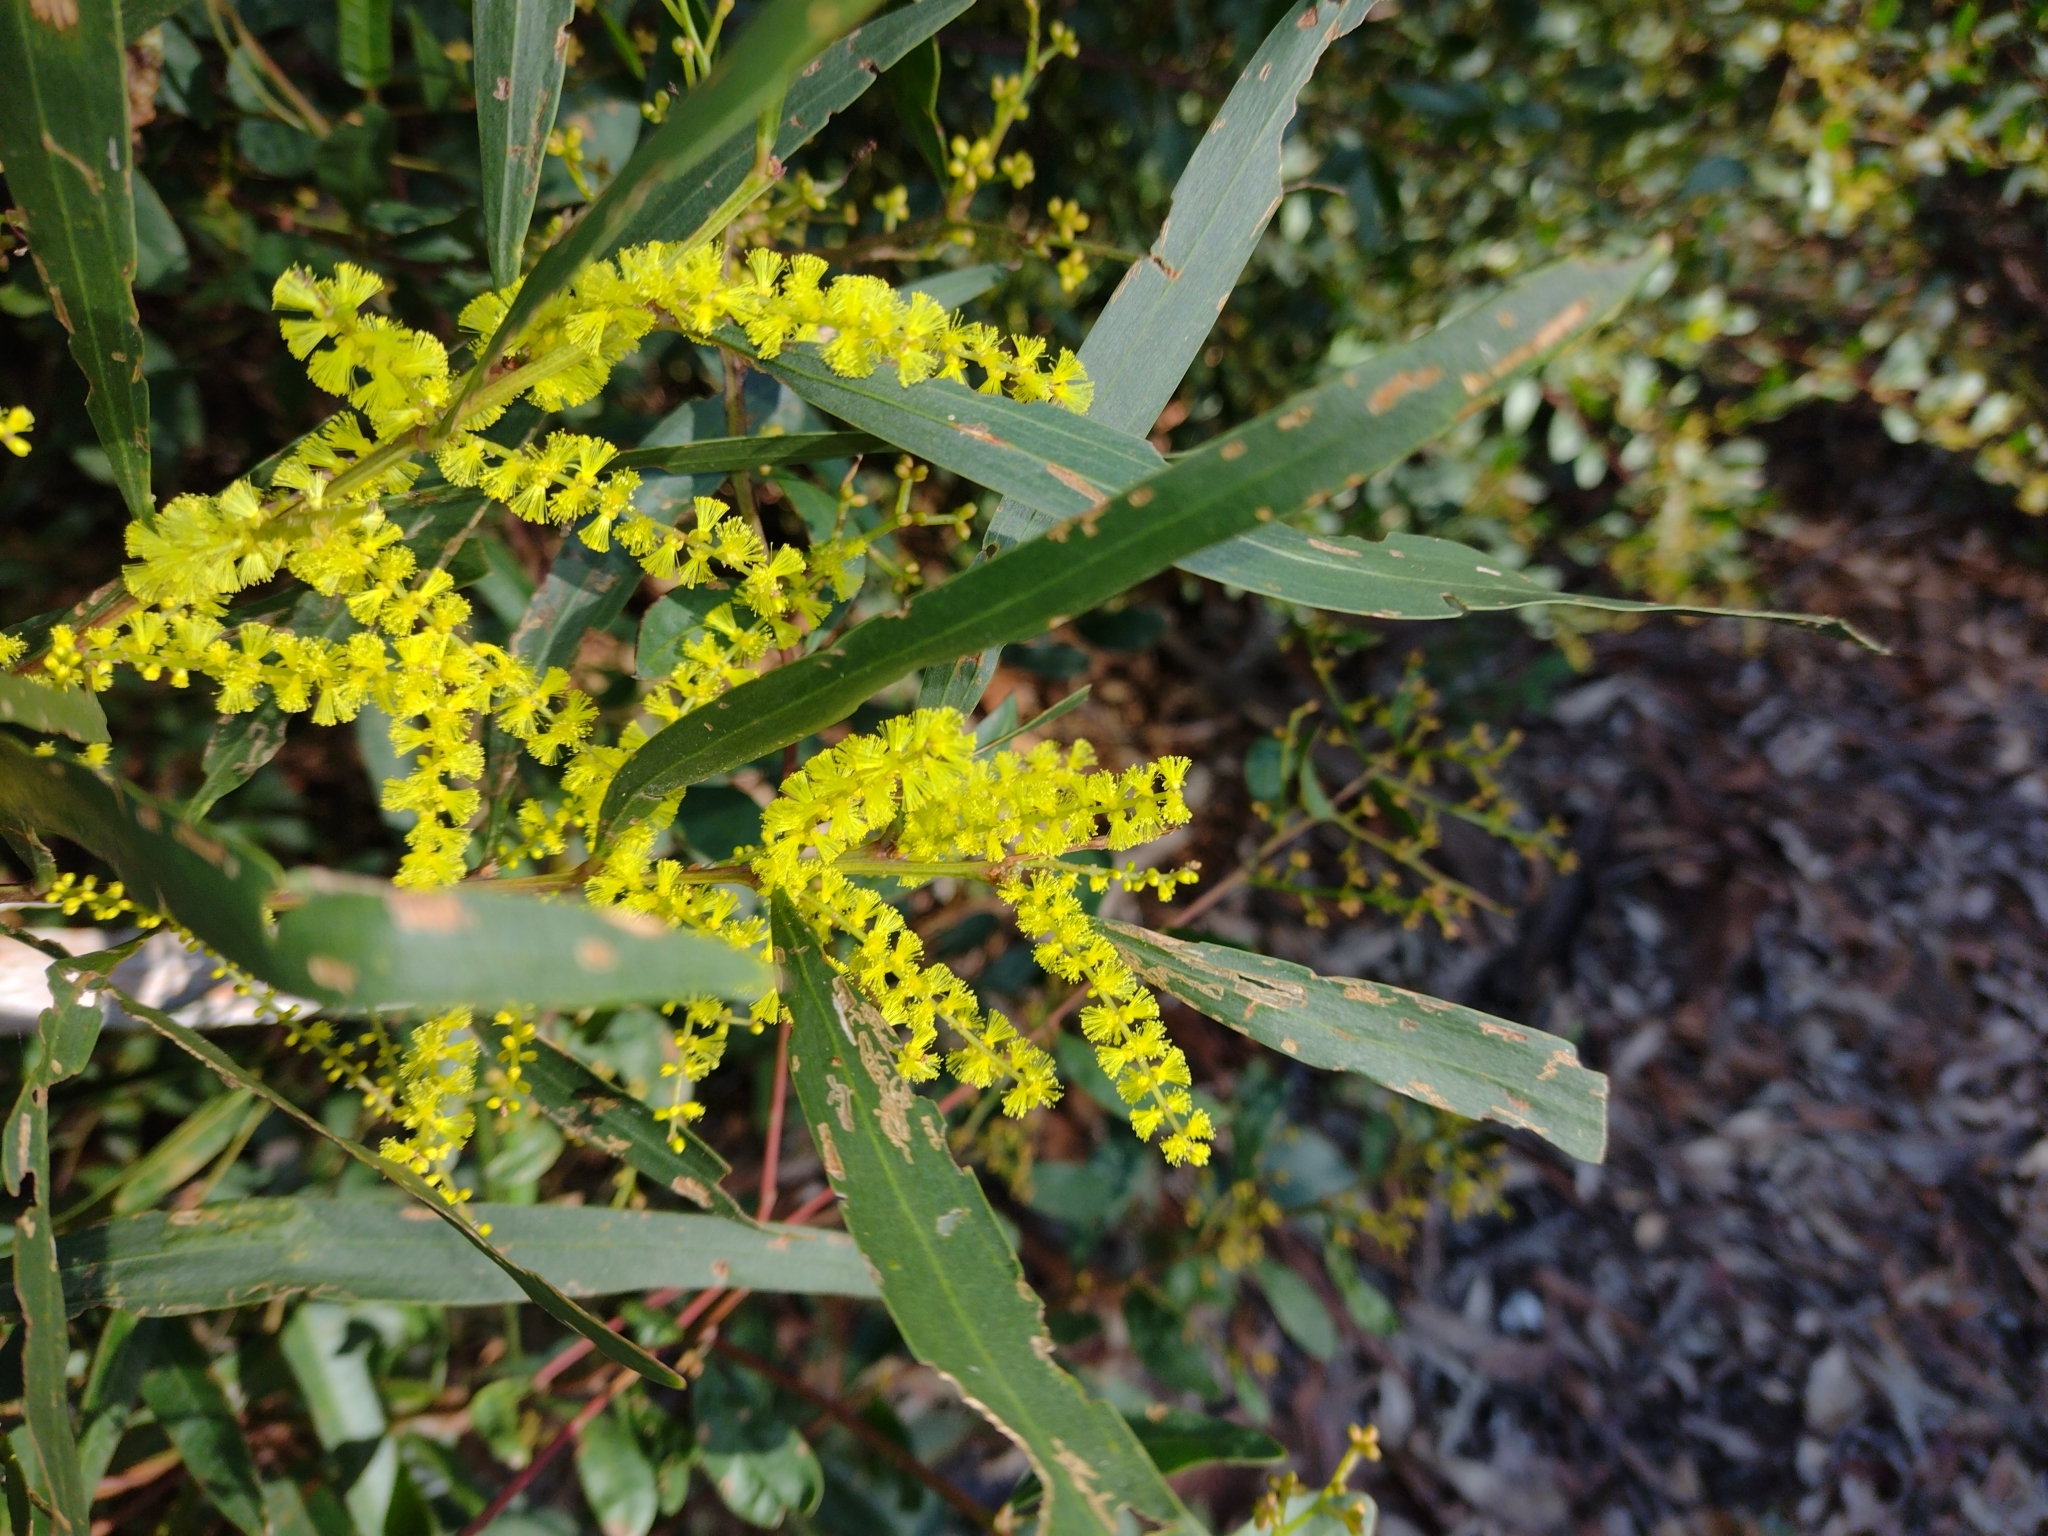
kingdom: Plantae
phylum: Tracheophyta
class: Magnoliopsida
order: Fabales
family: Fabaceae
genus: Acacia
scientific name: Acacia longifolia
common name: Sydney golden wattle
